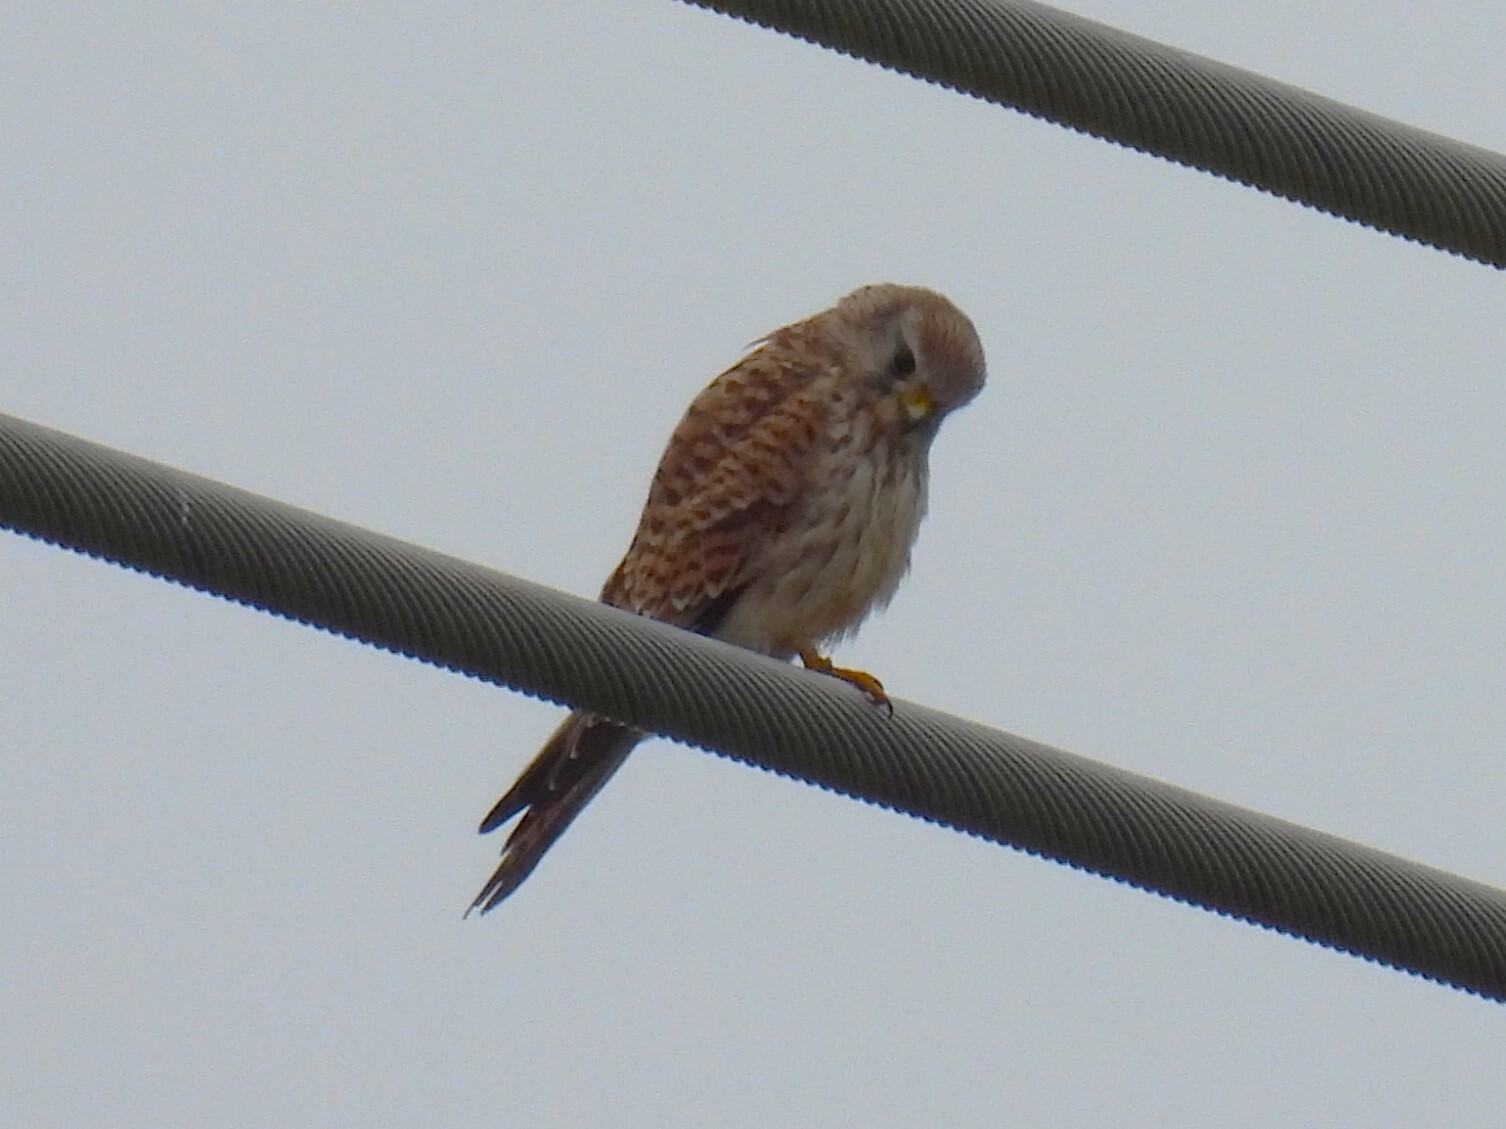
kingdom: Animalia
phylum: Chordata
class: Aves
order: Falconiformes
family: Falconidae
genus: Falco
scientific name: Falco tinnunculus
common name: Common kestrel
